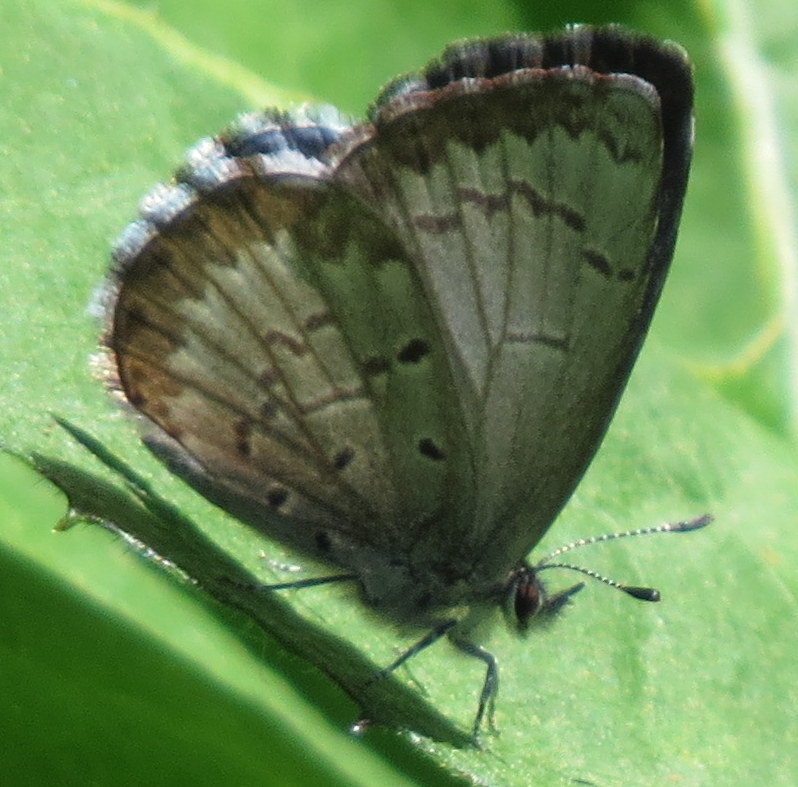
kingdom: Animalia
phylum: Arthropoda
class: Insecta
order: Lepidoptera
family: Lycaenidae
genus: Celastrina
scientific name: Celastrina lucia
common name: Lucia azure
